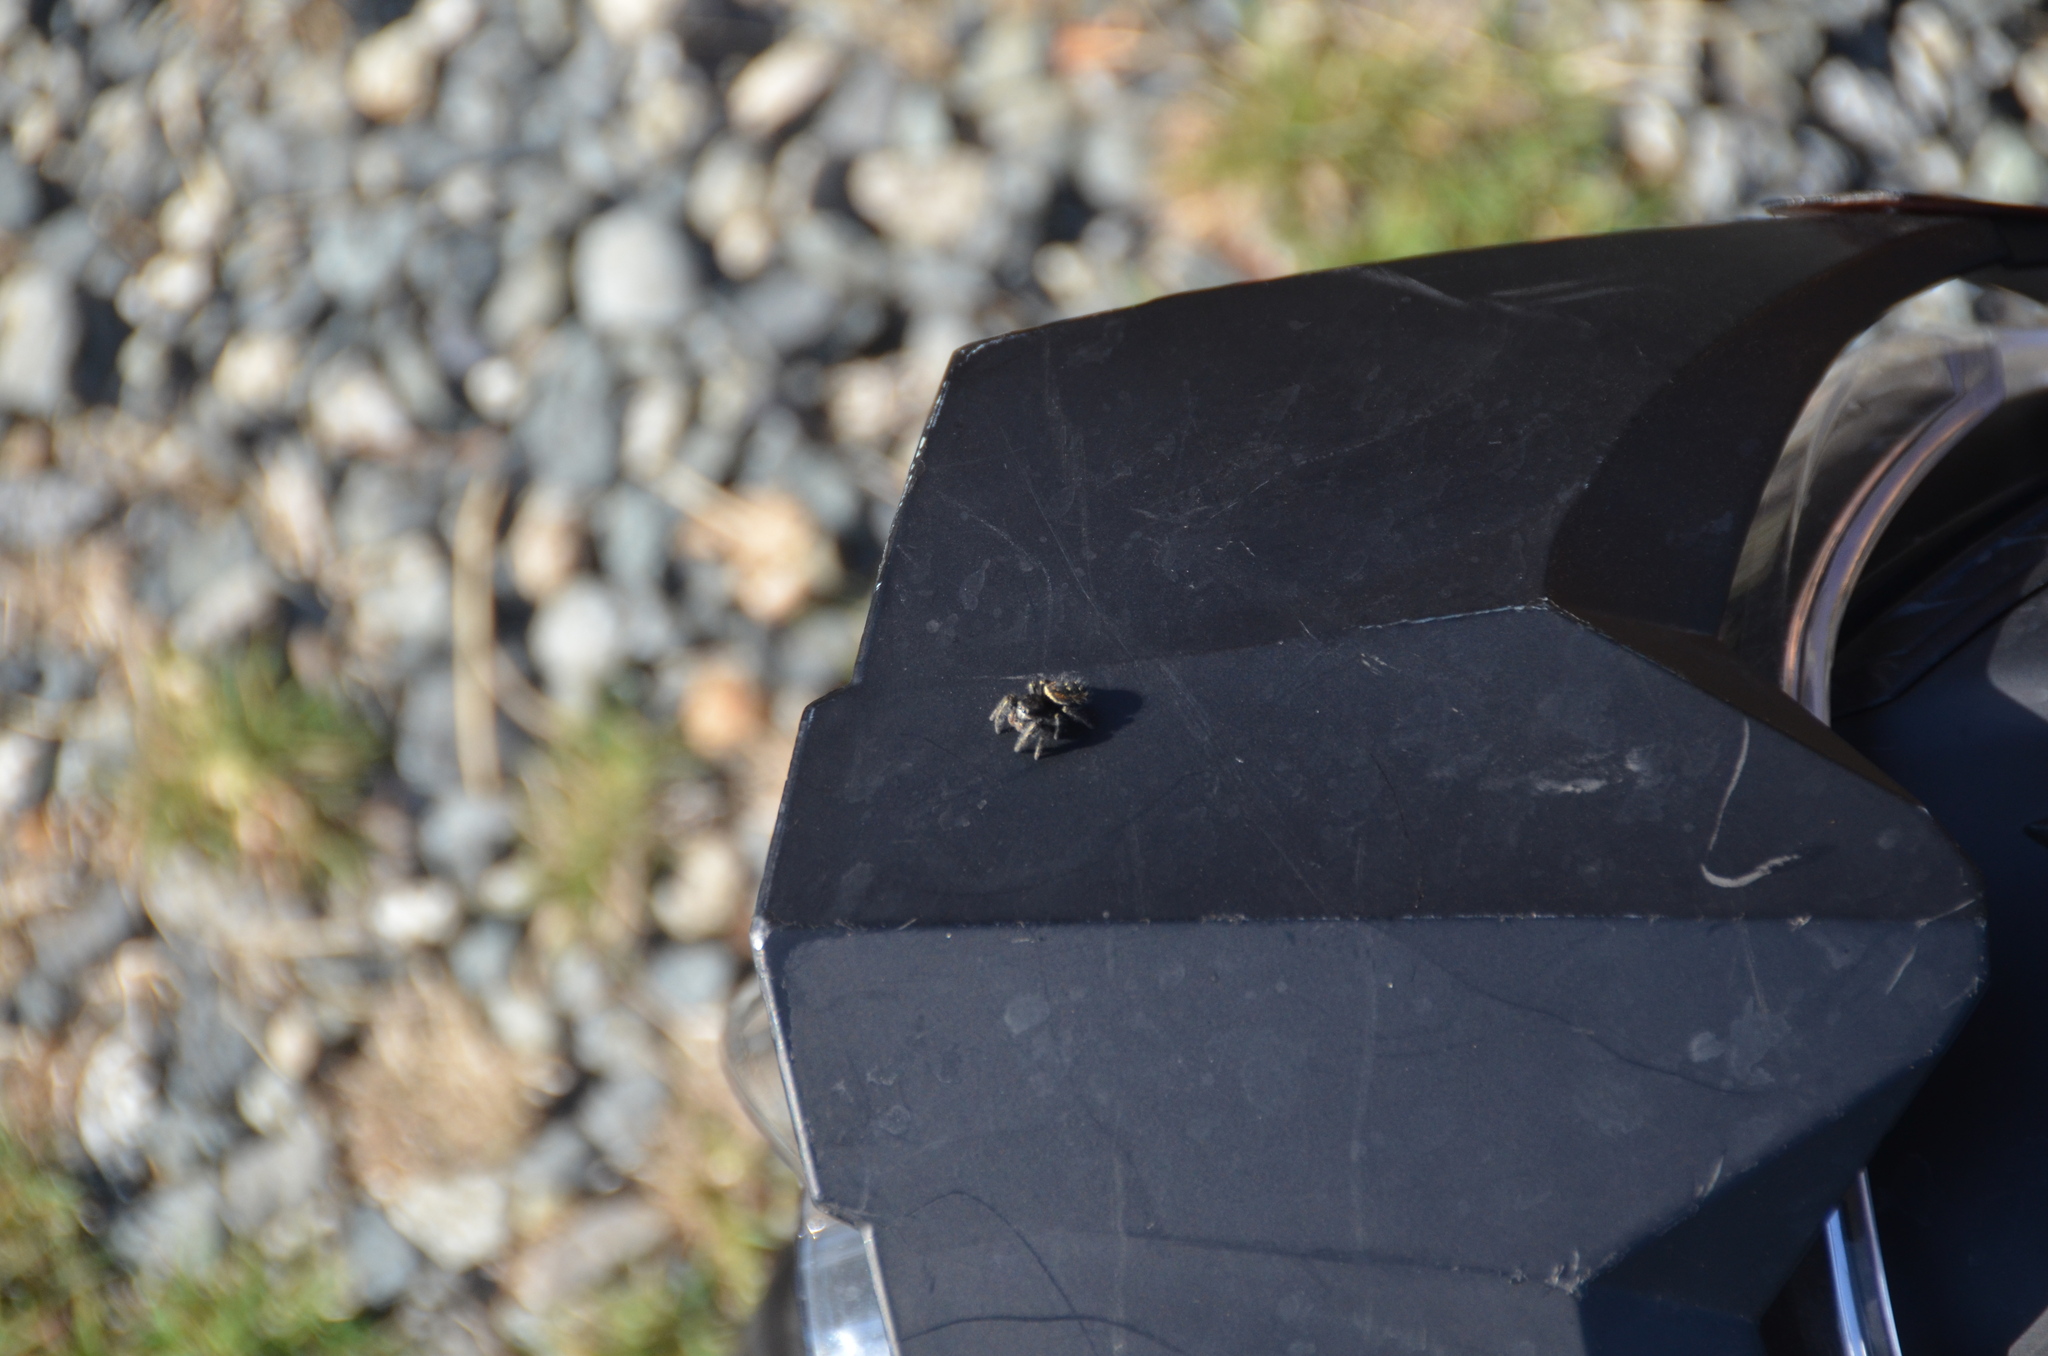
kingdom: Animalia
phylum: Arthropoda
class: Arachnida
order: Araneae
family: Salticidae
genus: Phidippus
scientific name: Phidippus johnsoni
